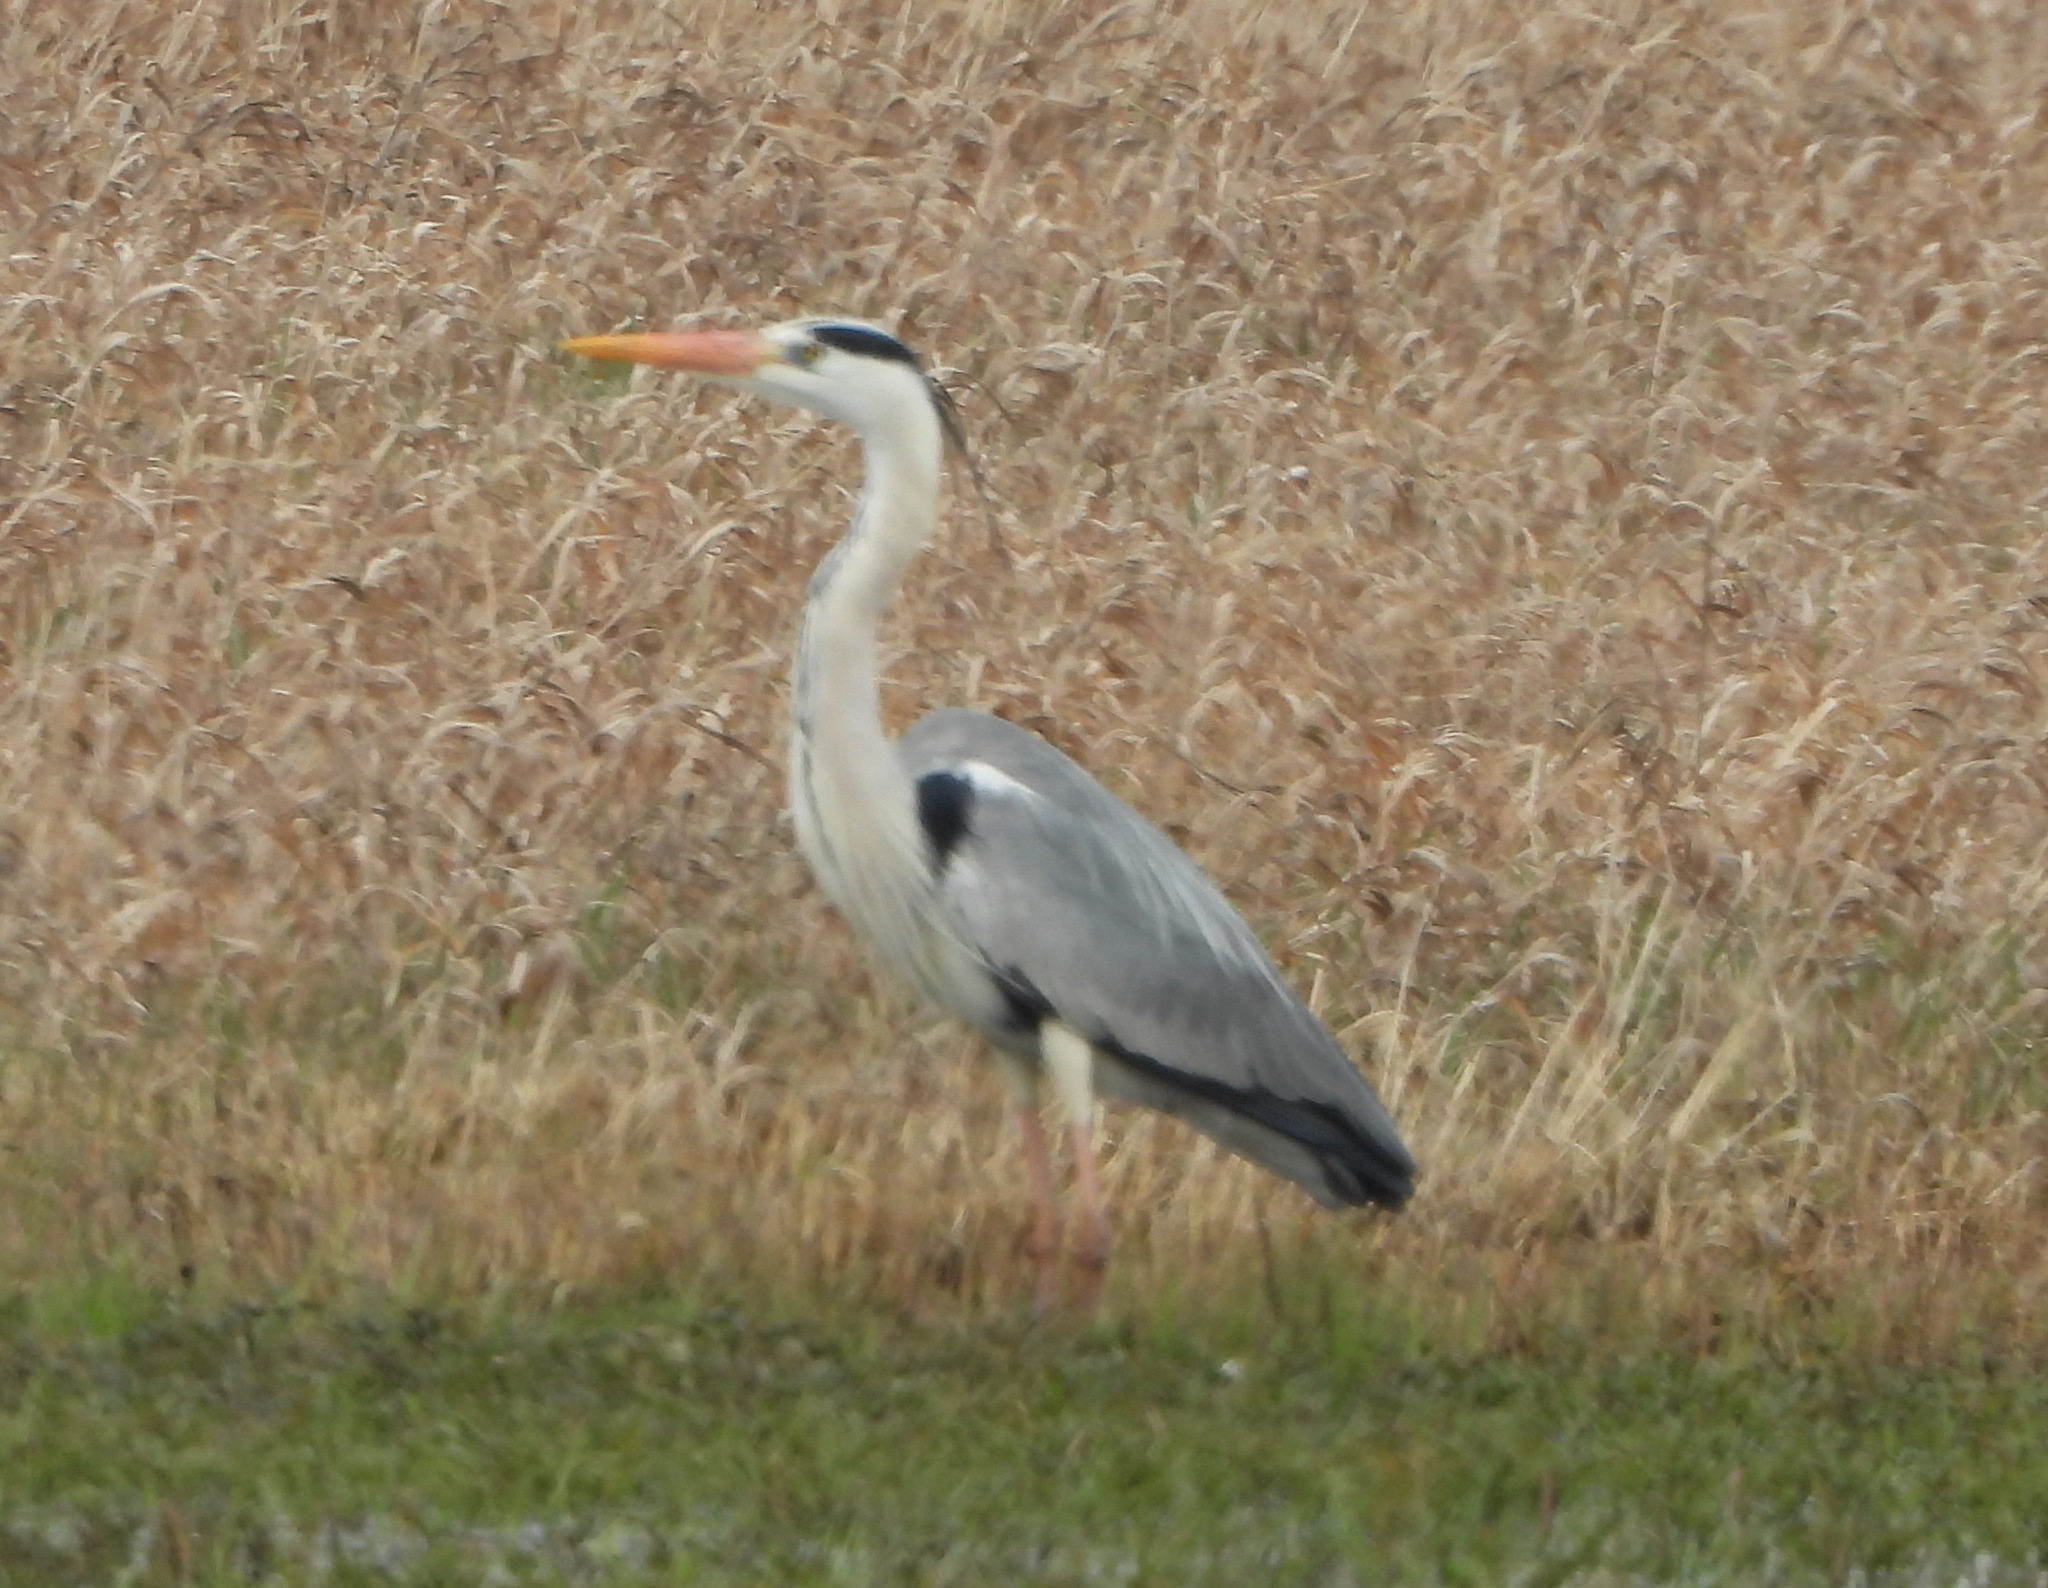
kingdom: Animalia
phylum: Chordata
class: Aves
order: Pelecaniformes
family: Ardeidae
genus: Ardea
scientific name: Ardea cinerea
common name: Grey heron
